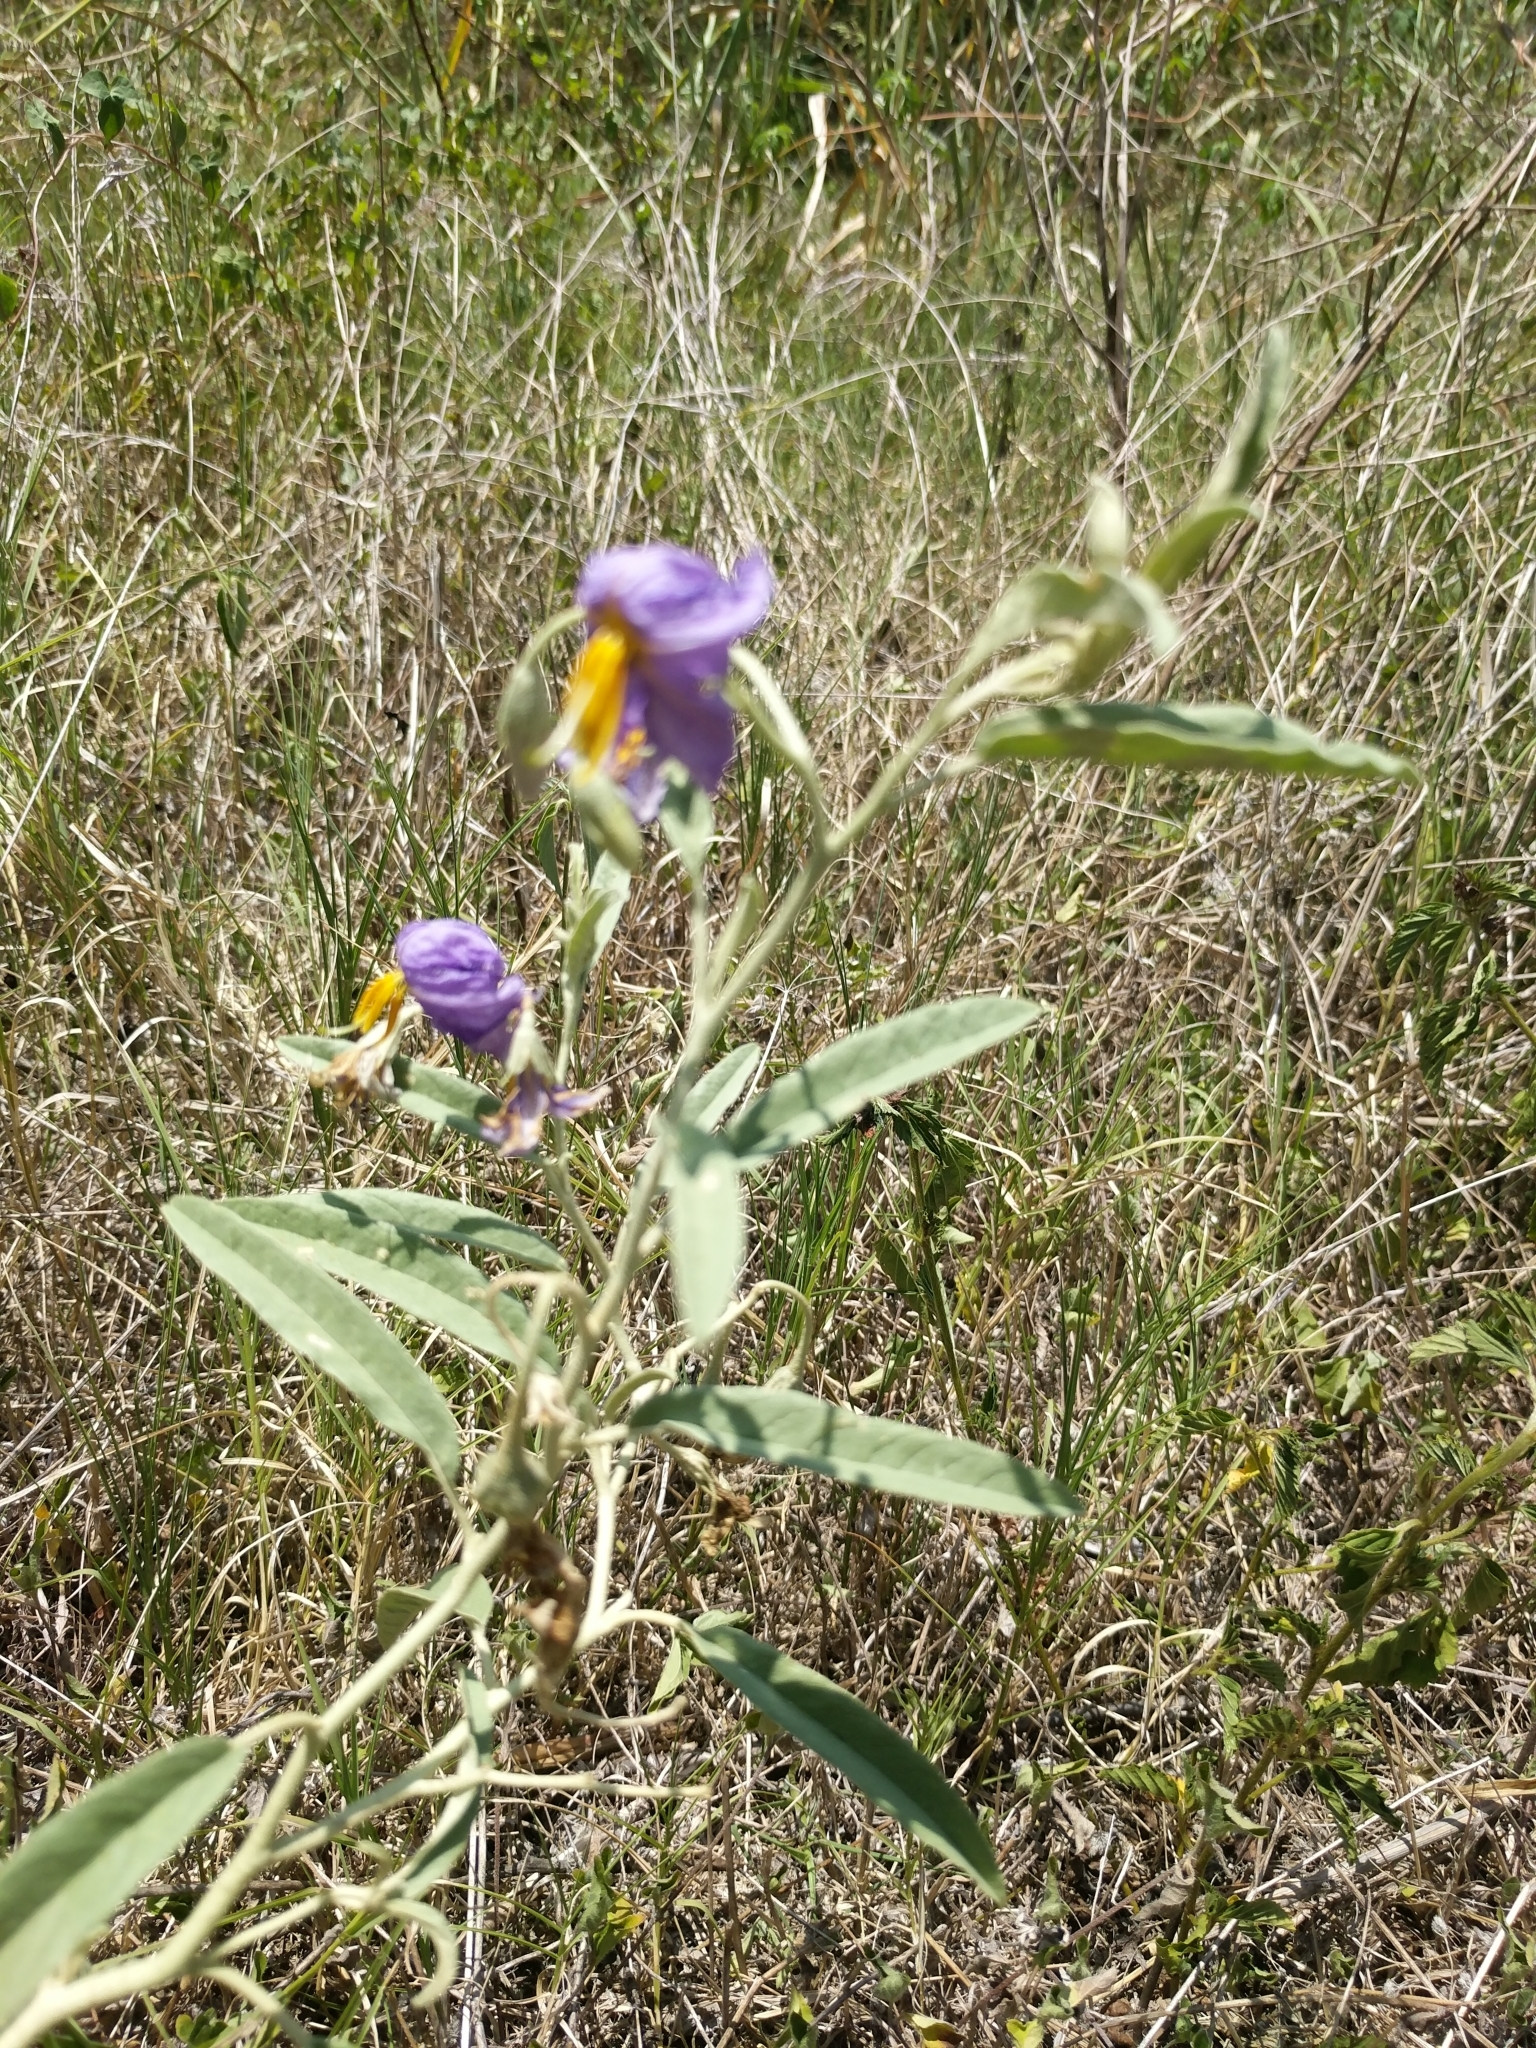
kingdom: Plantae
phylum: Tracheophyta
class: Magnoliopsida
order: Solanales
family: Solanaceae
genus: Solanum
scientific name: Solanum elaeagnifolium
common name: Silverleaf nightshade
